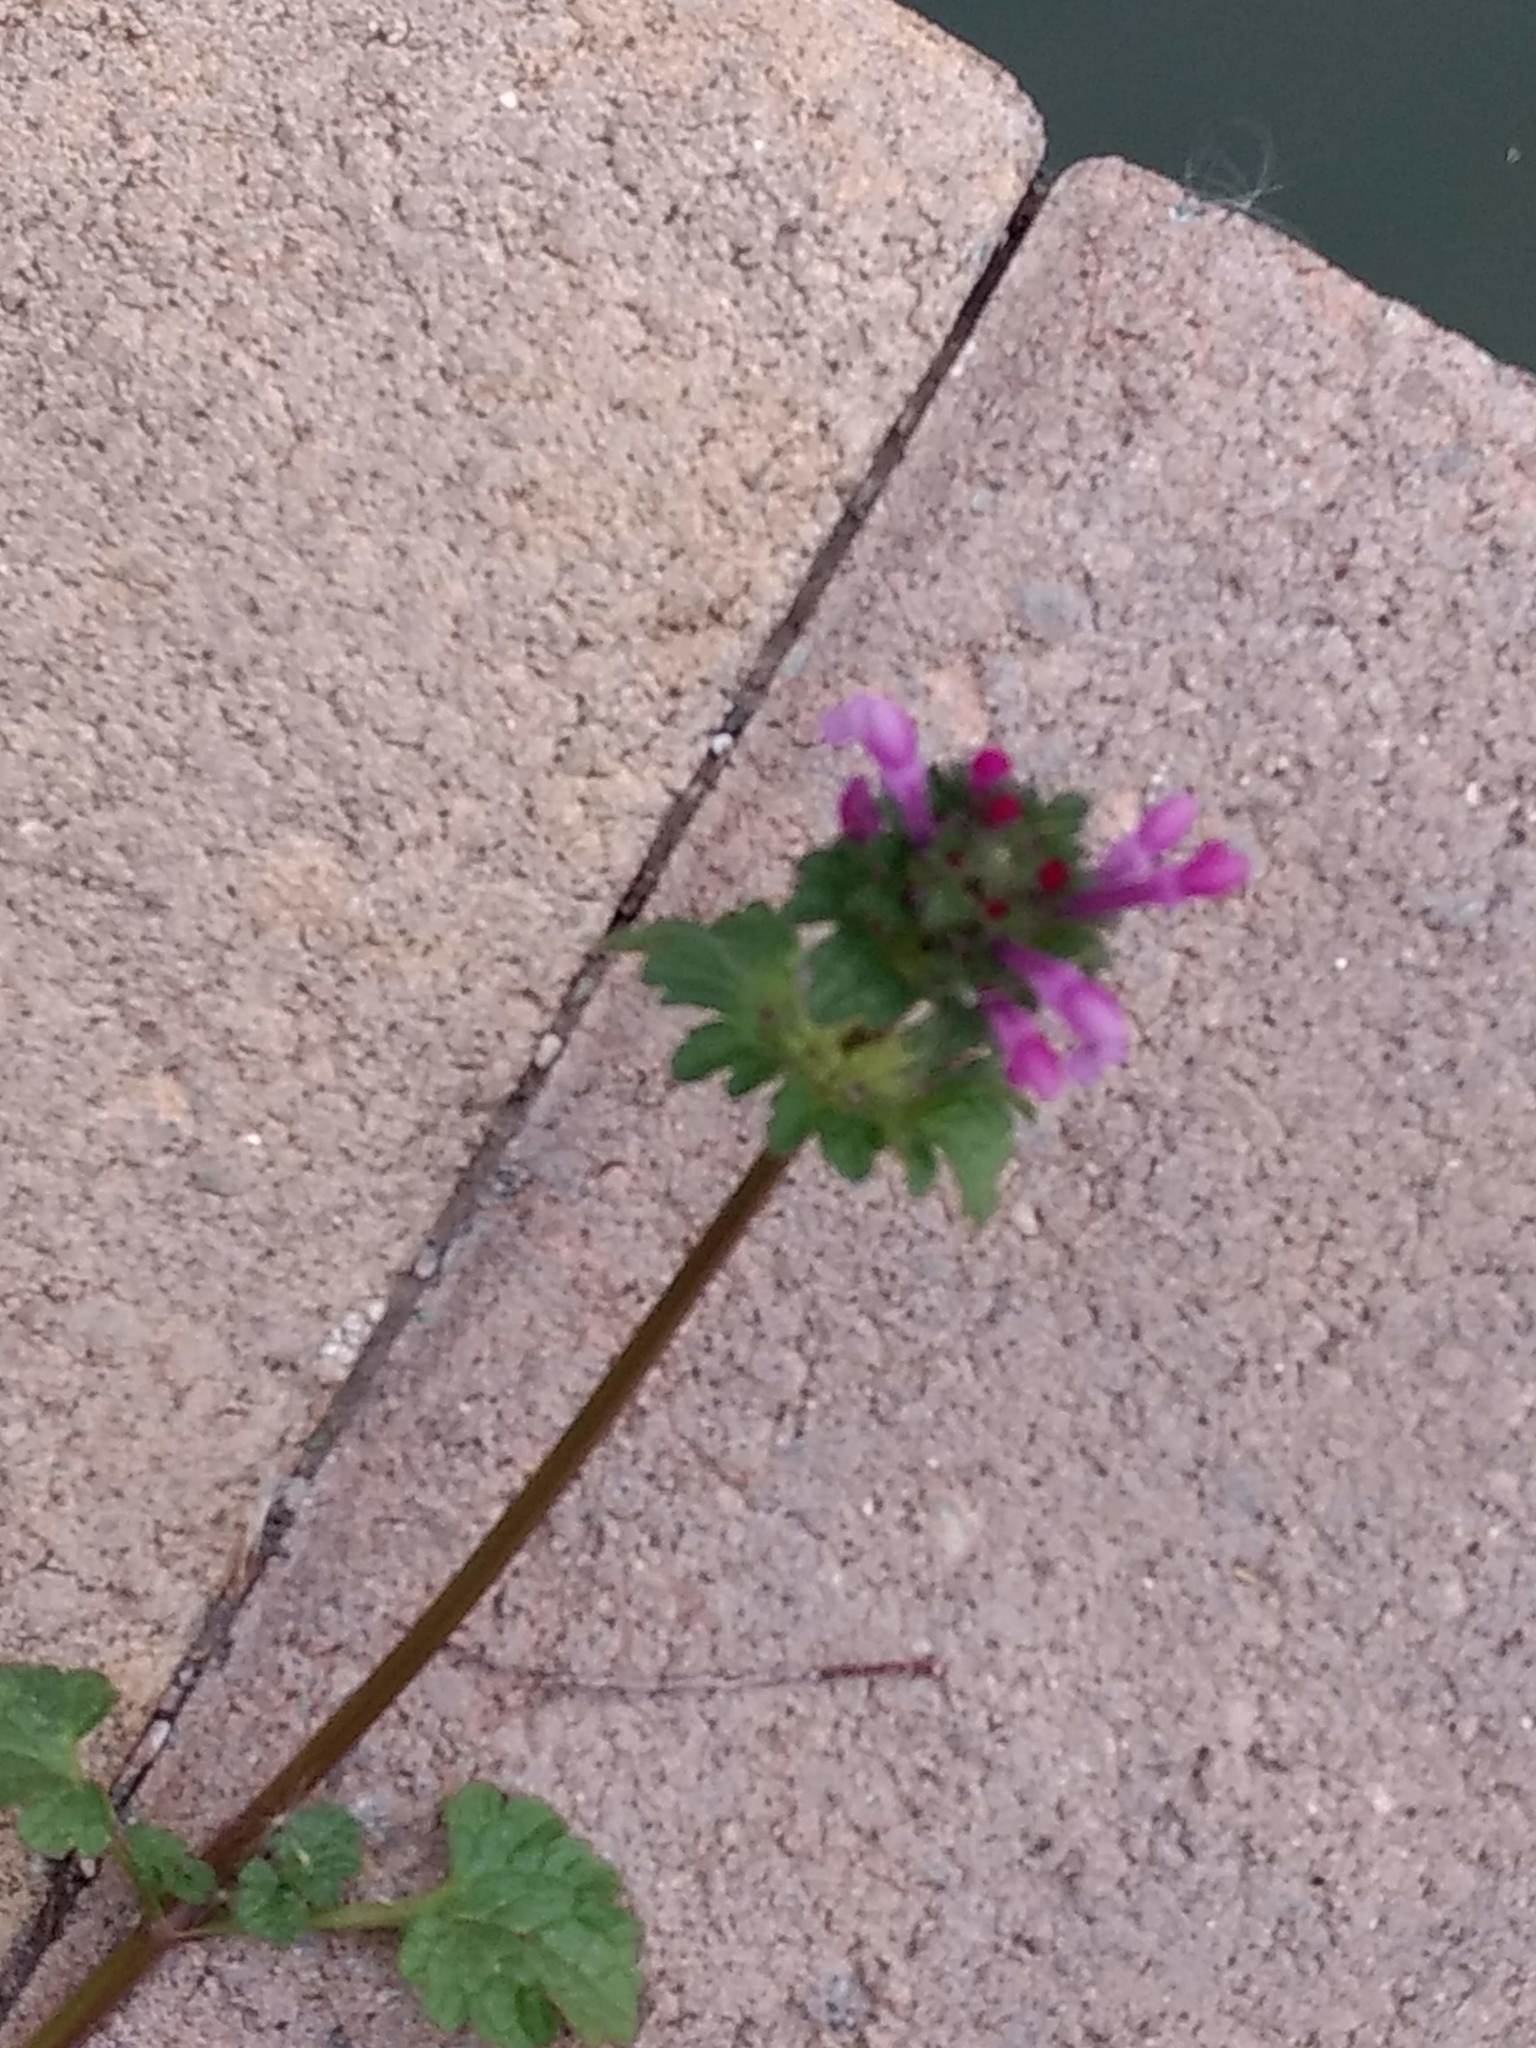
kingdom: Plantae
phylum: Tracheophyta
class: Magnoliopsida
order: Lamiales
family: Lamiaceae
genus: Lamium
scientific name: Lamium amplexicaule
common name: Henbit dead-nettle
